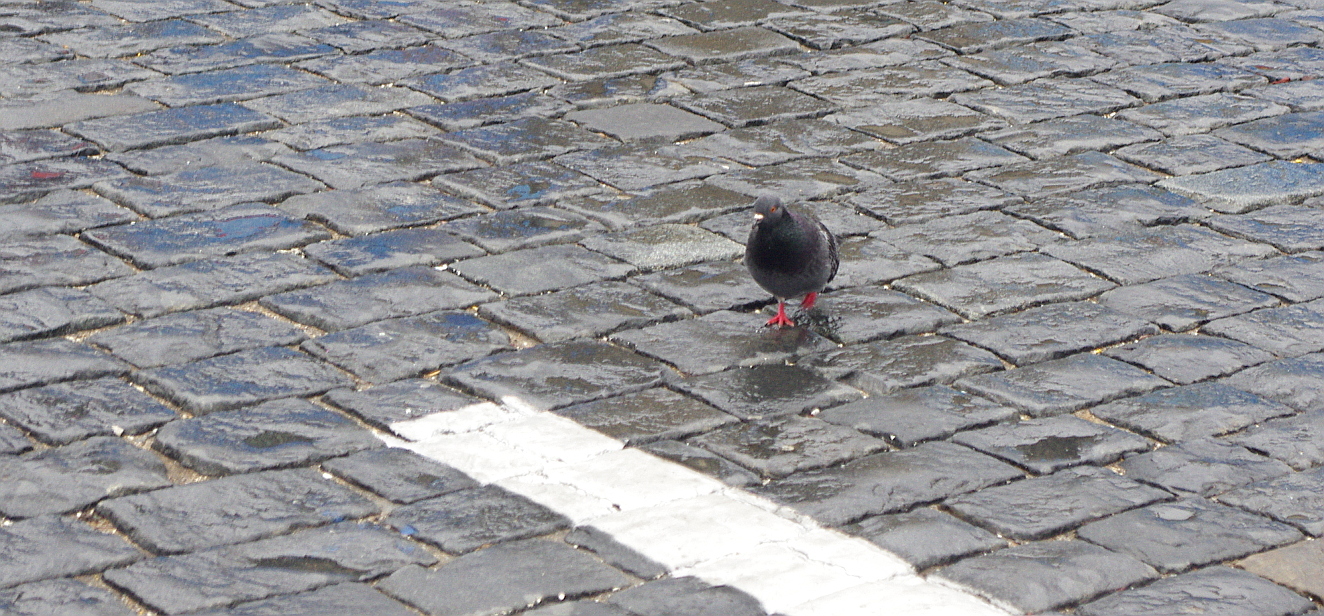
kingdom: Animalia
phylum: Chordata
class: Aves
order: Columbiformes
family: Columbidae
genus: Columba
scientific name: Columba livia
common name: Rock pigeon
